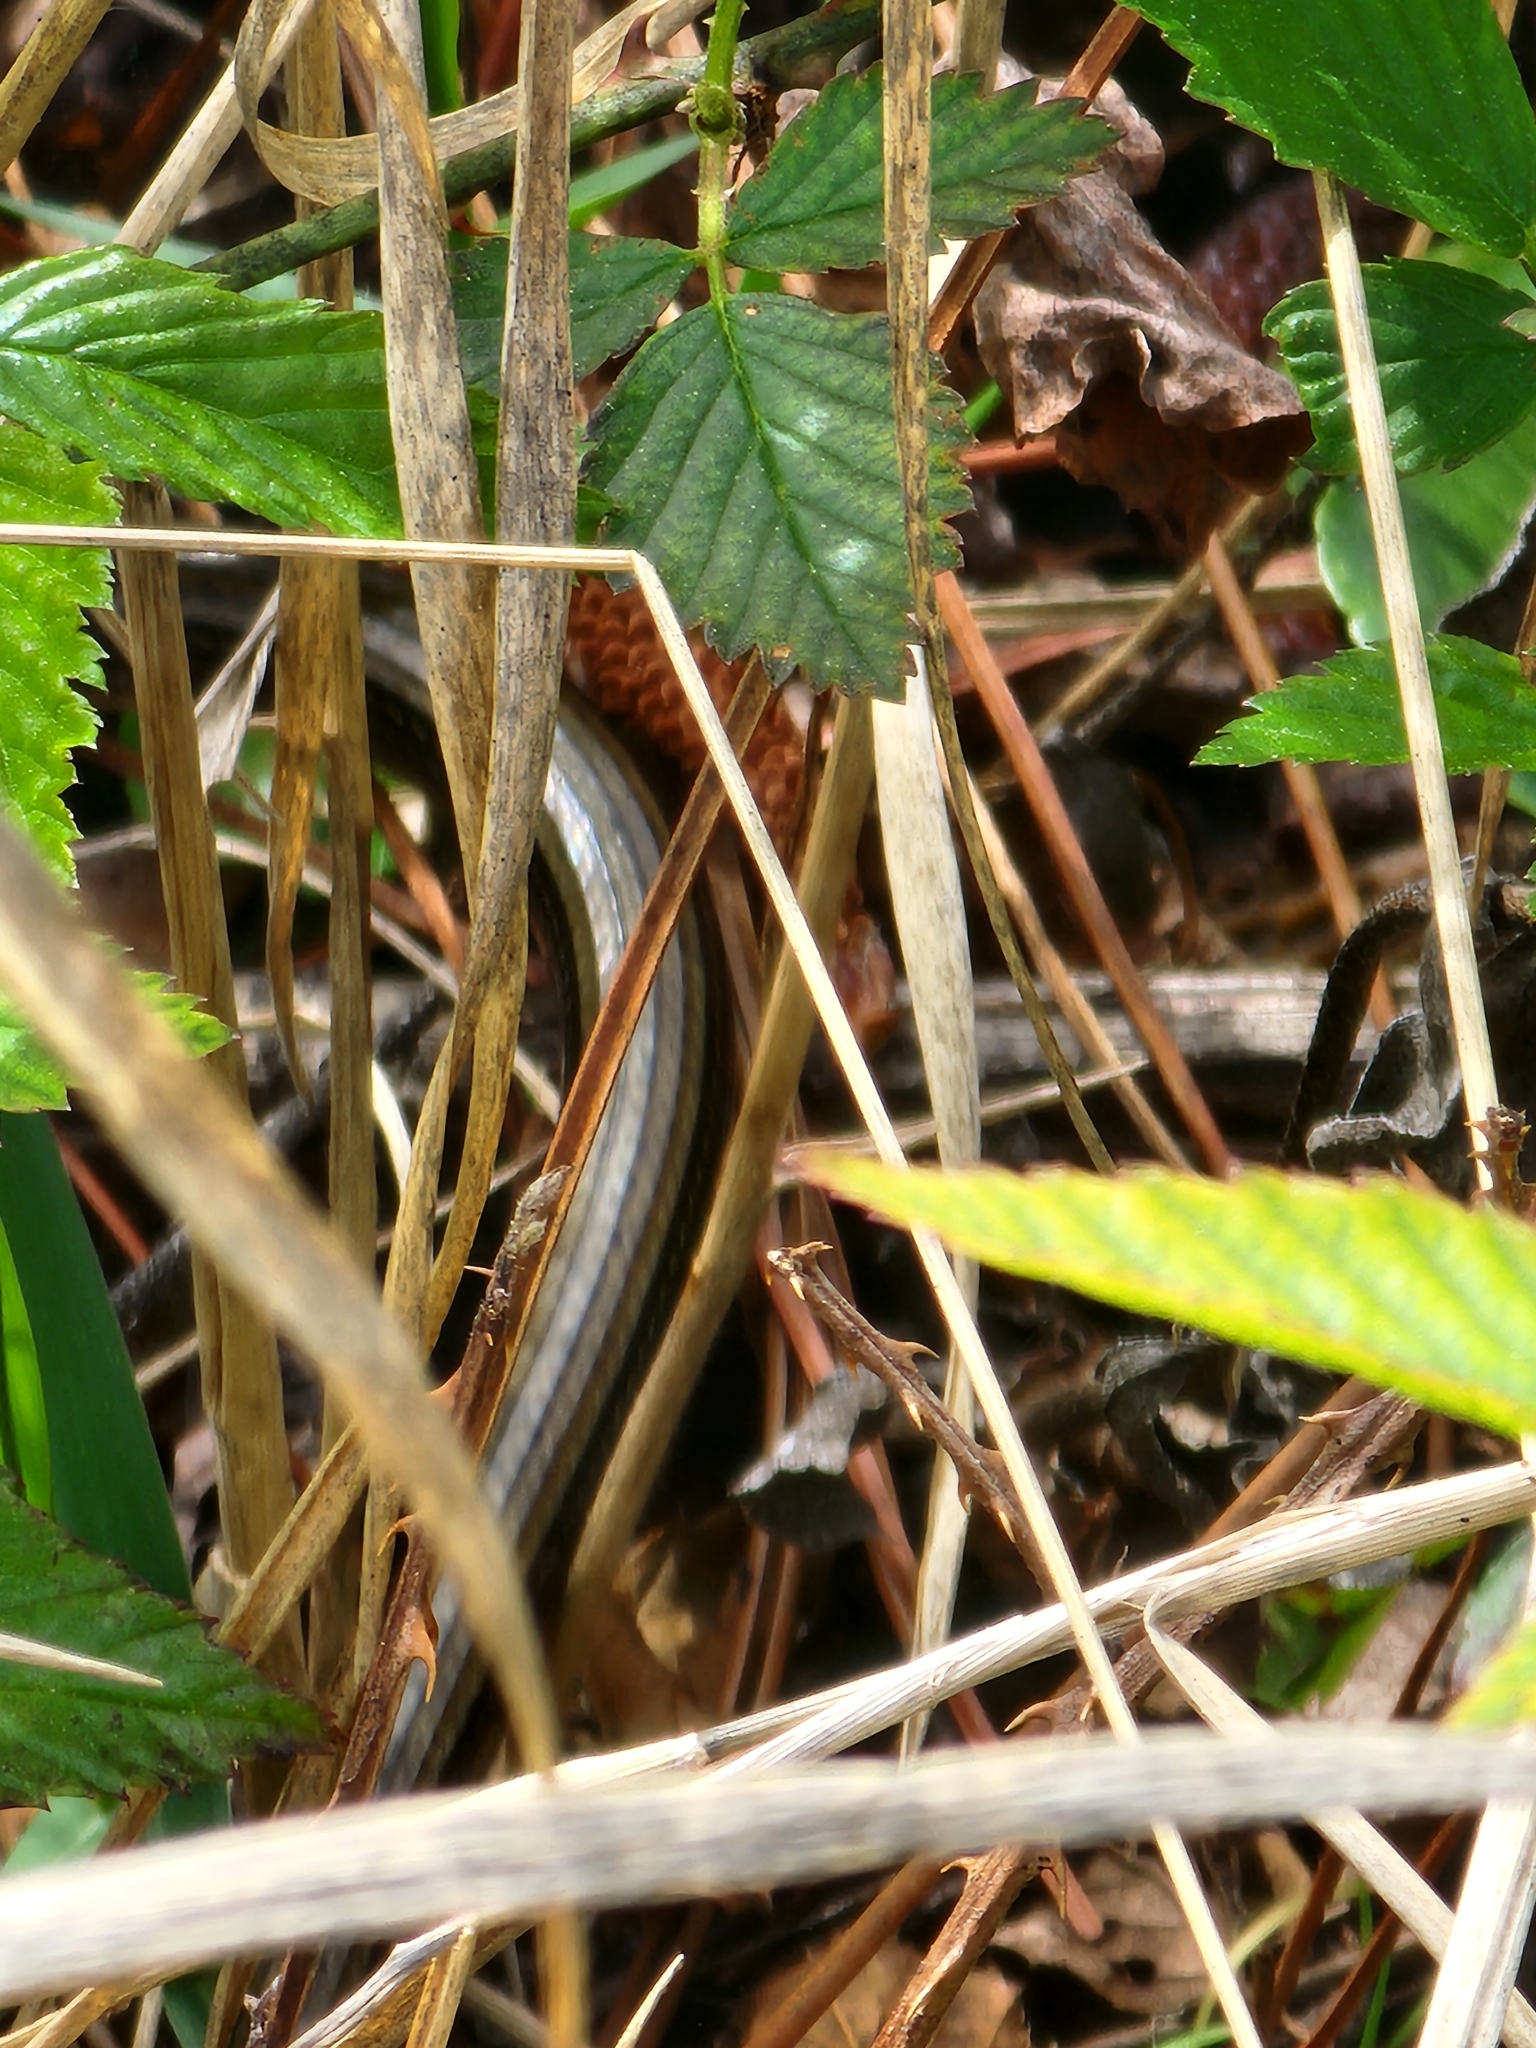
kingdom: Animalia
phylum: Chordata
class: Squamata
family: Anguidae
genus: Ophisaurus
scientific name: Ophisaurus ventralis
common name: Eastern glass lizard
